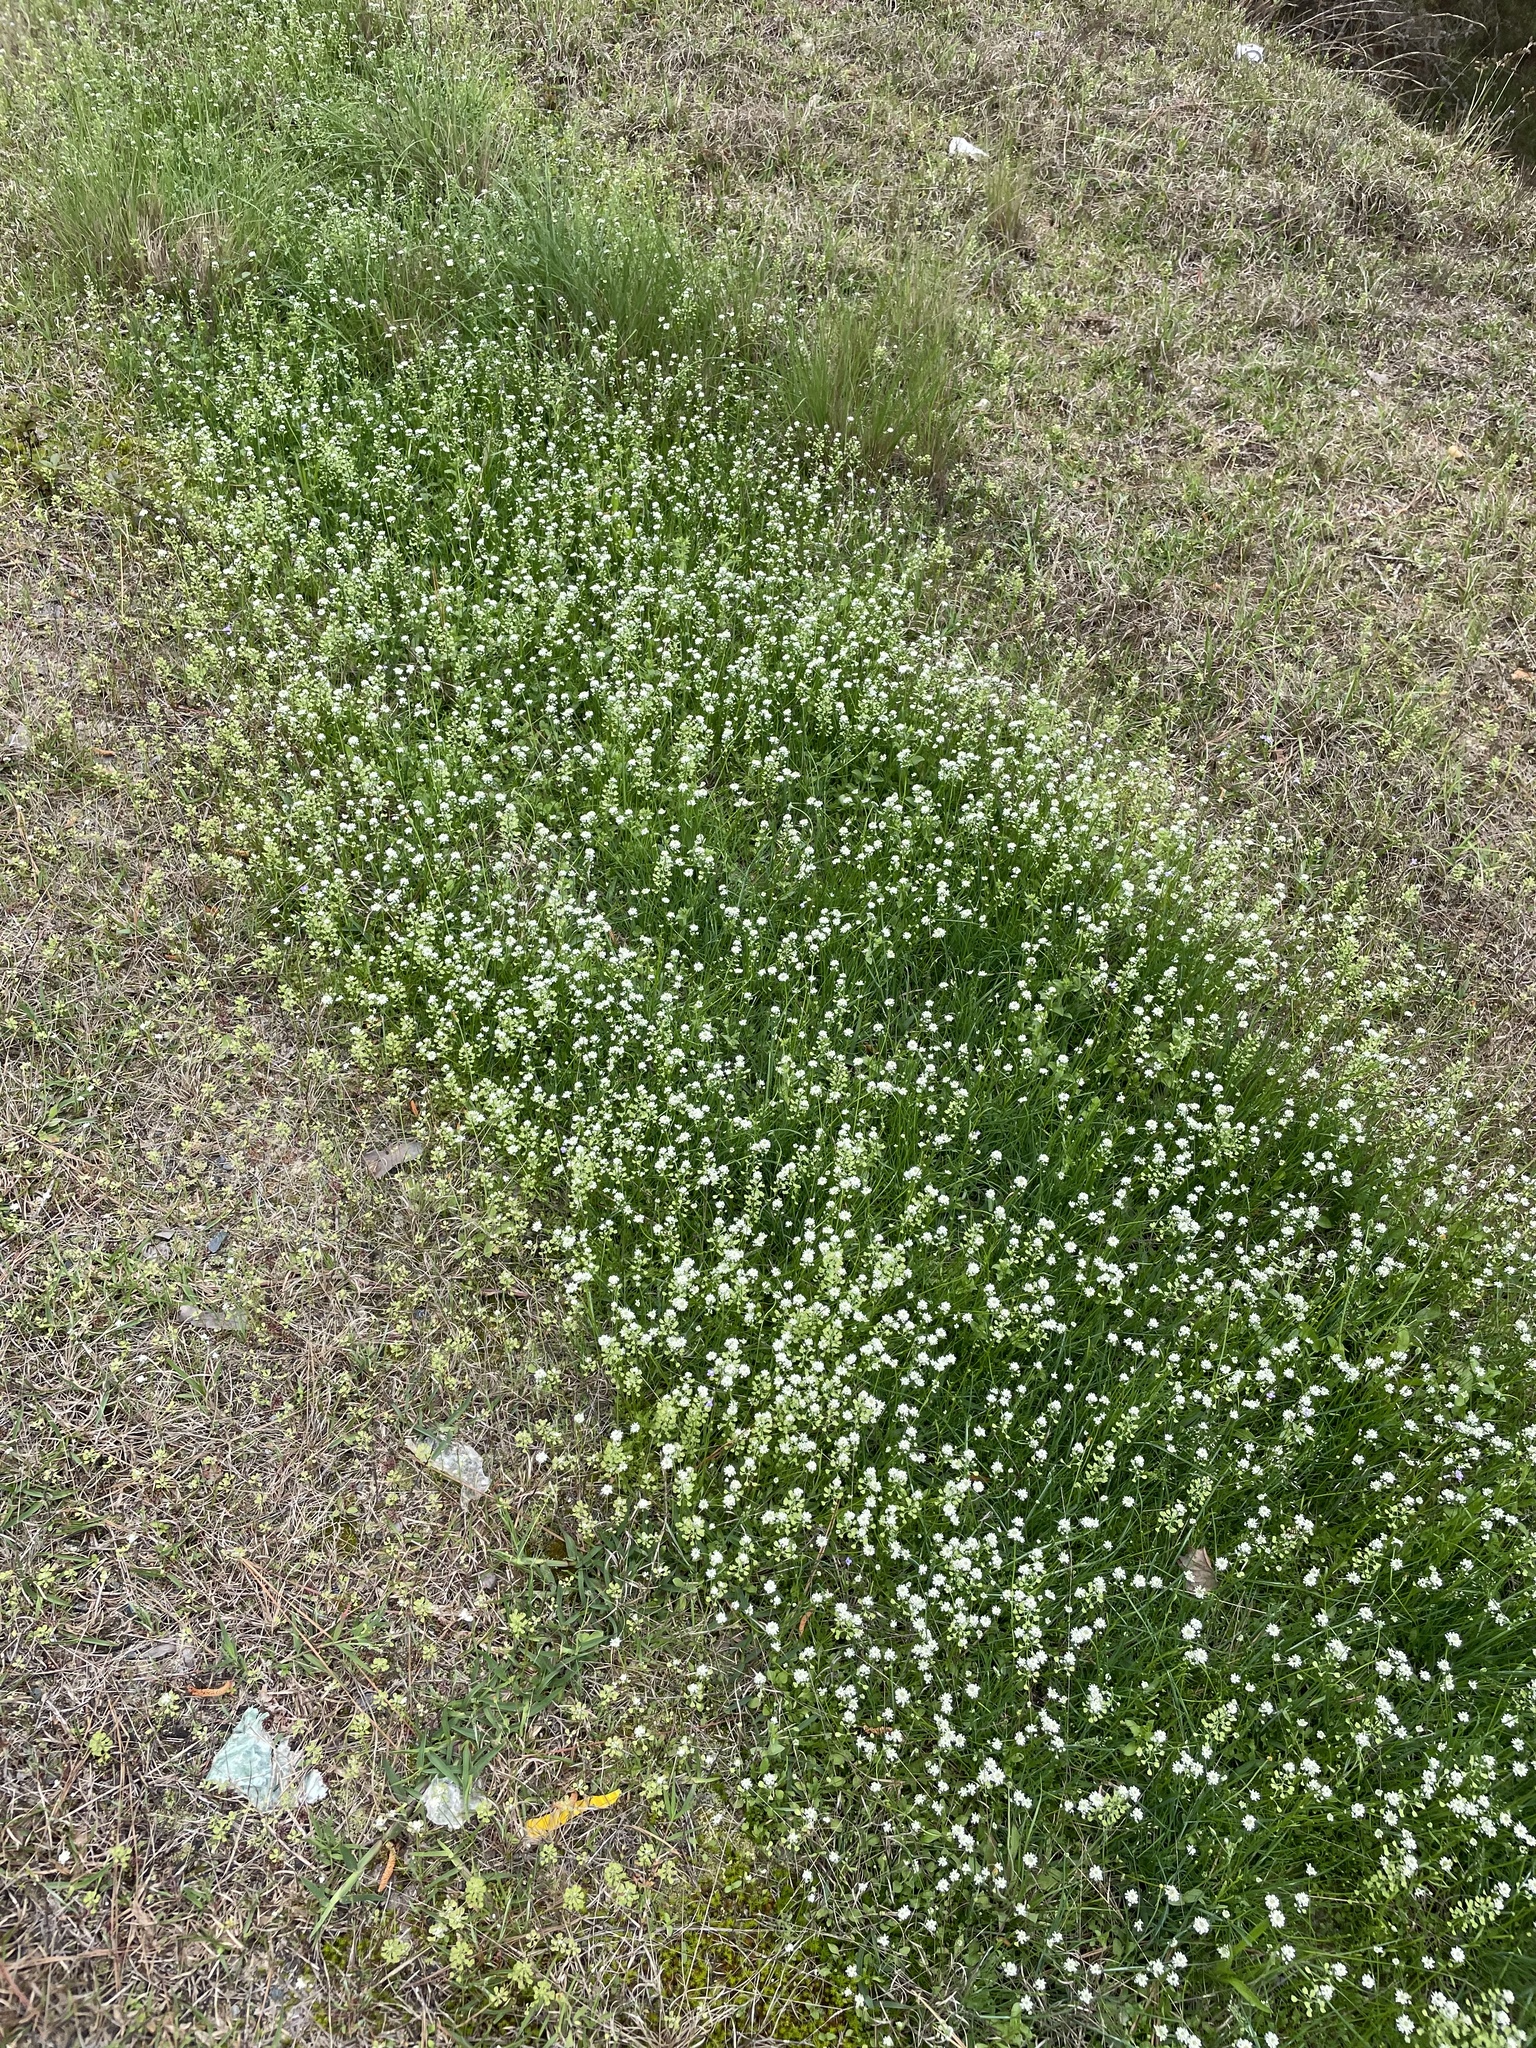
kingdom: Plantae
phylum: Tracheophyta
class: Magnoliopsida
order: Brassicales
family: Brassicaceae
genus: Teesdalia
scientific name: Teesdalia nudicaulis
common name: Shepherd's cress
